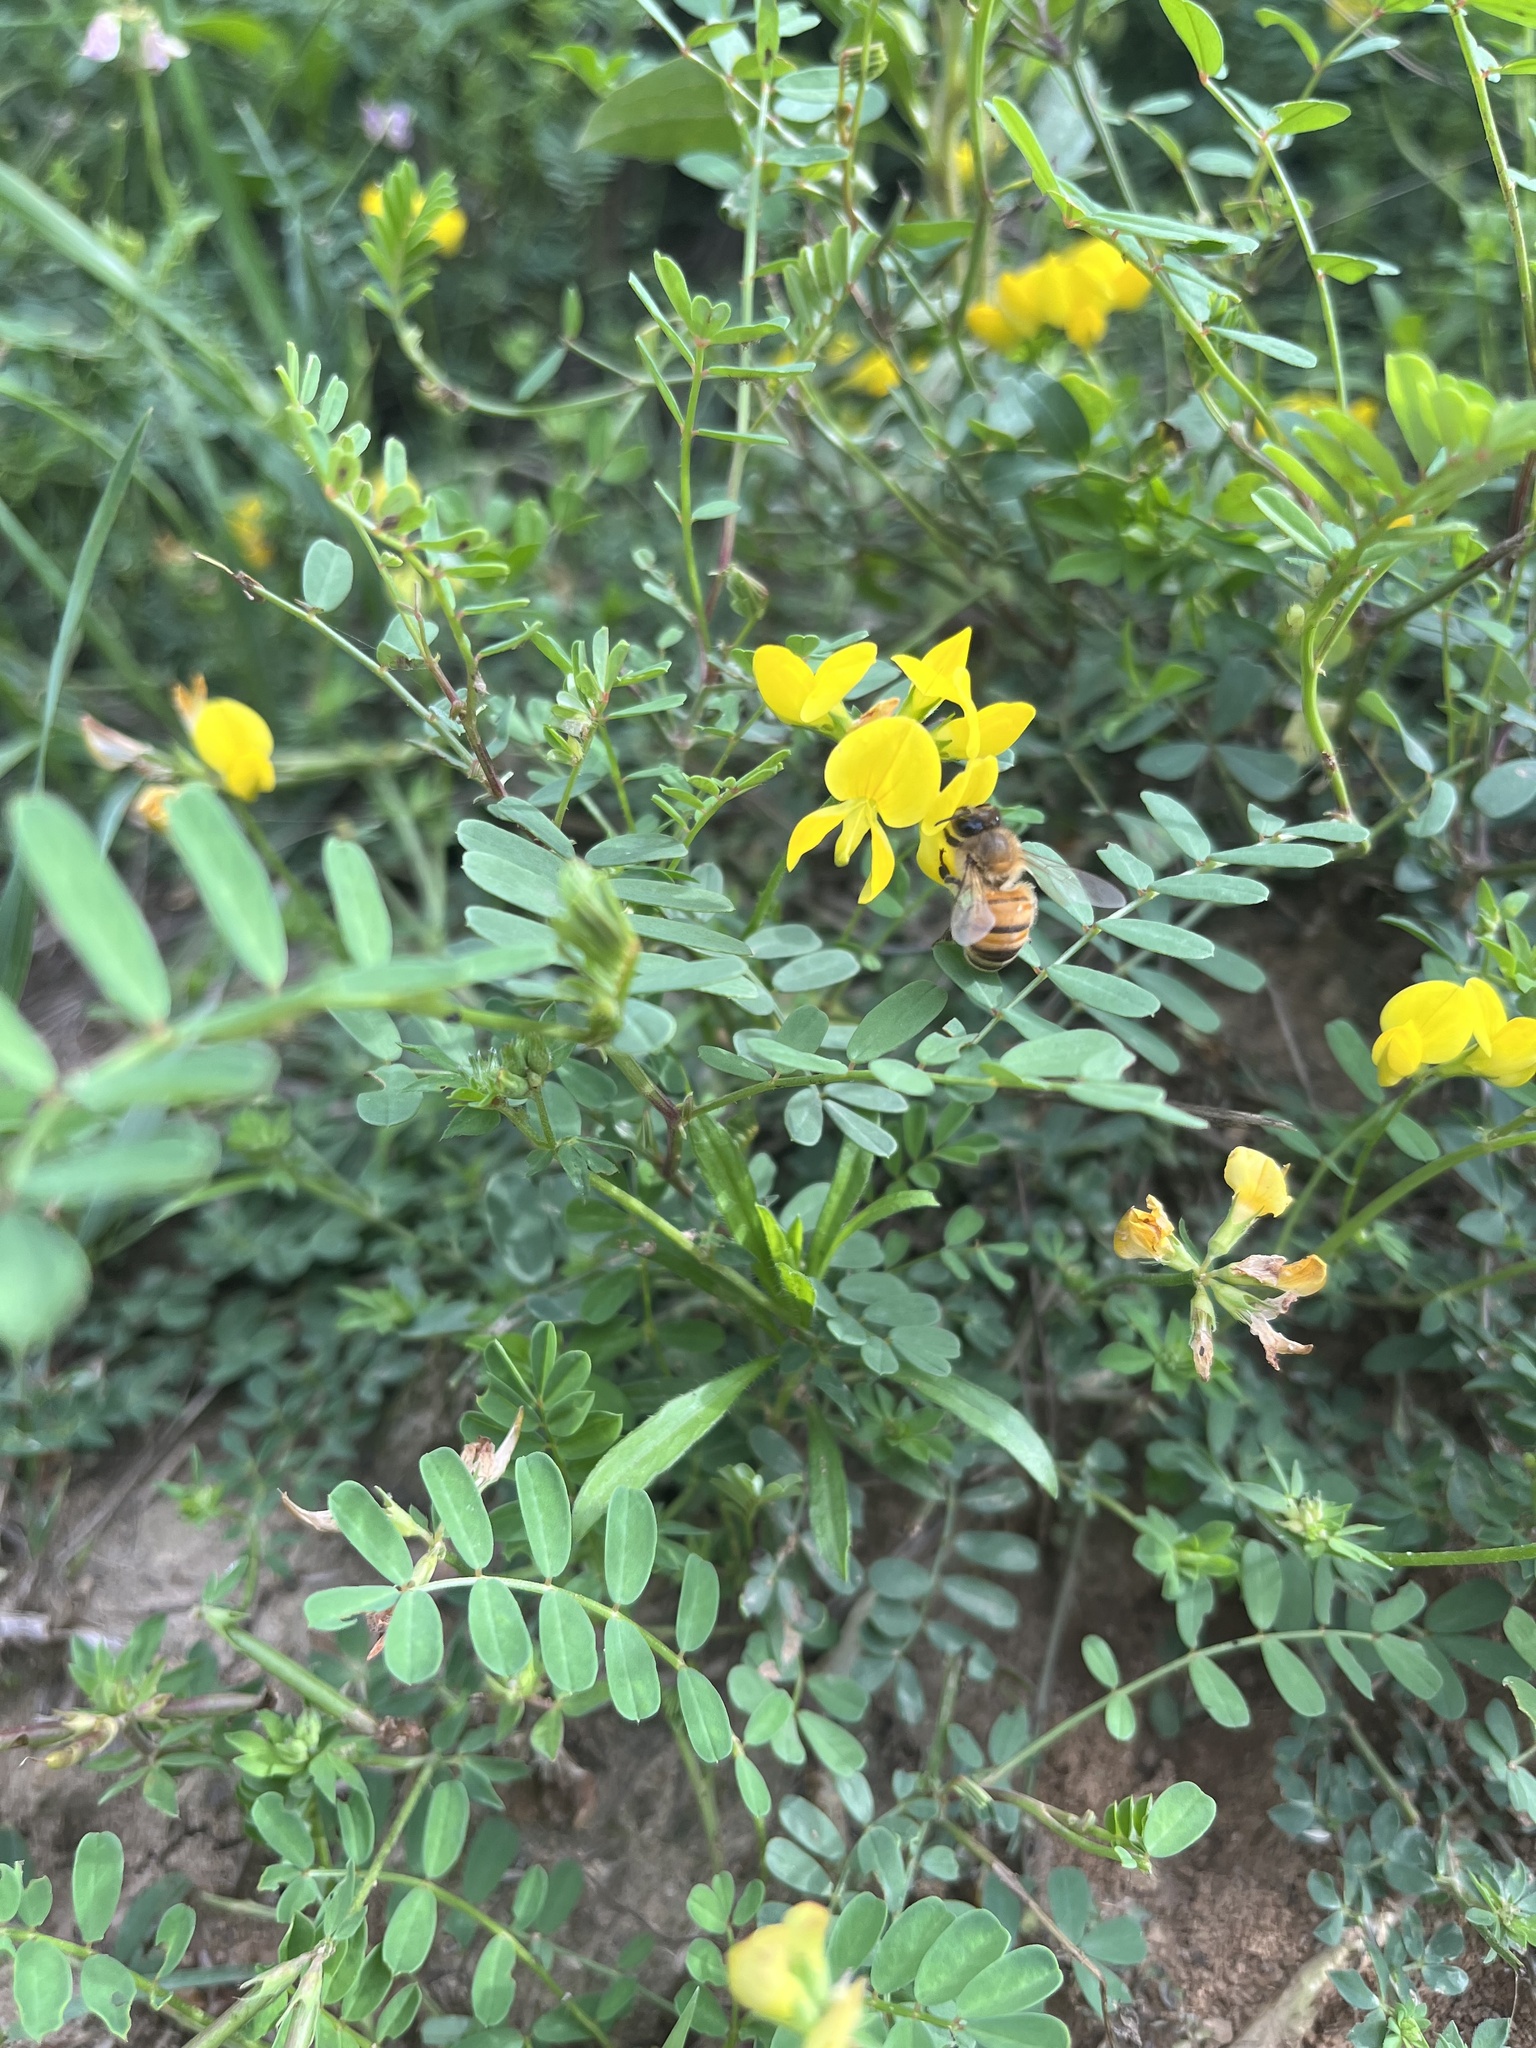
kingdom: Animalia
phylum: Arthropoda
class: Insecta
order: Hymenoptera
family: Apidae
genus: Apis
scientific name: Apis mellifera
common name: Honey bee
